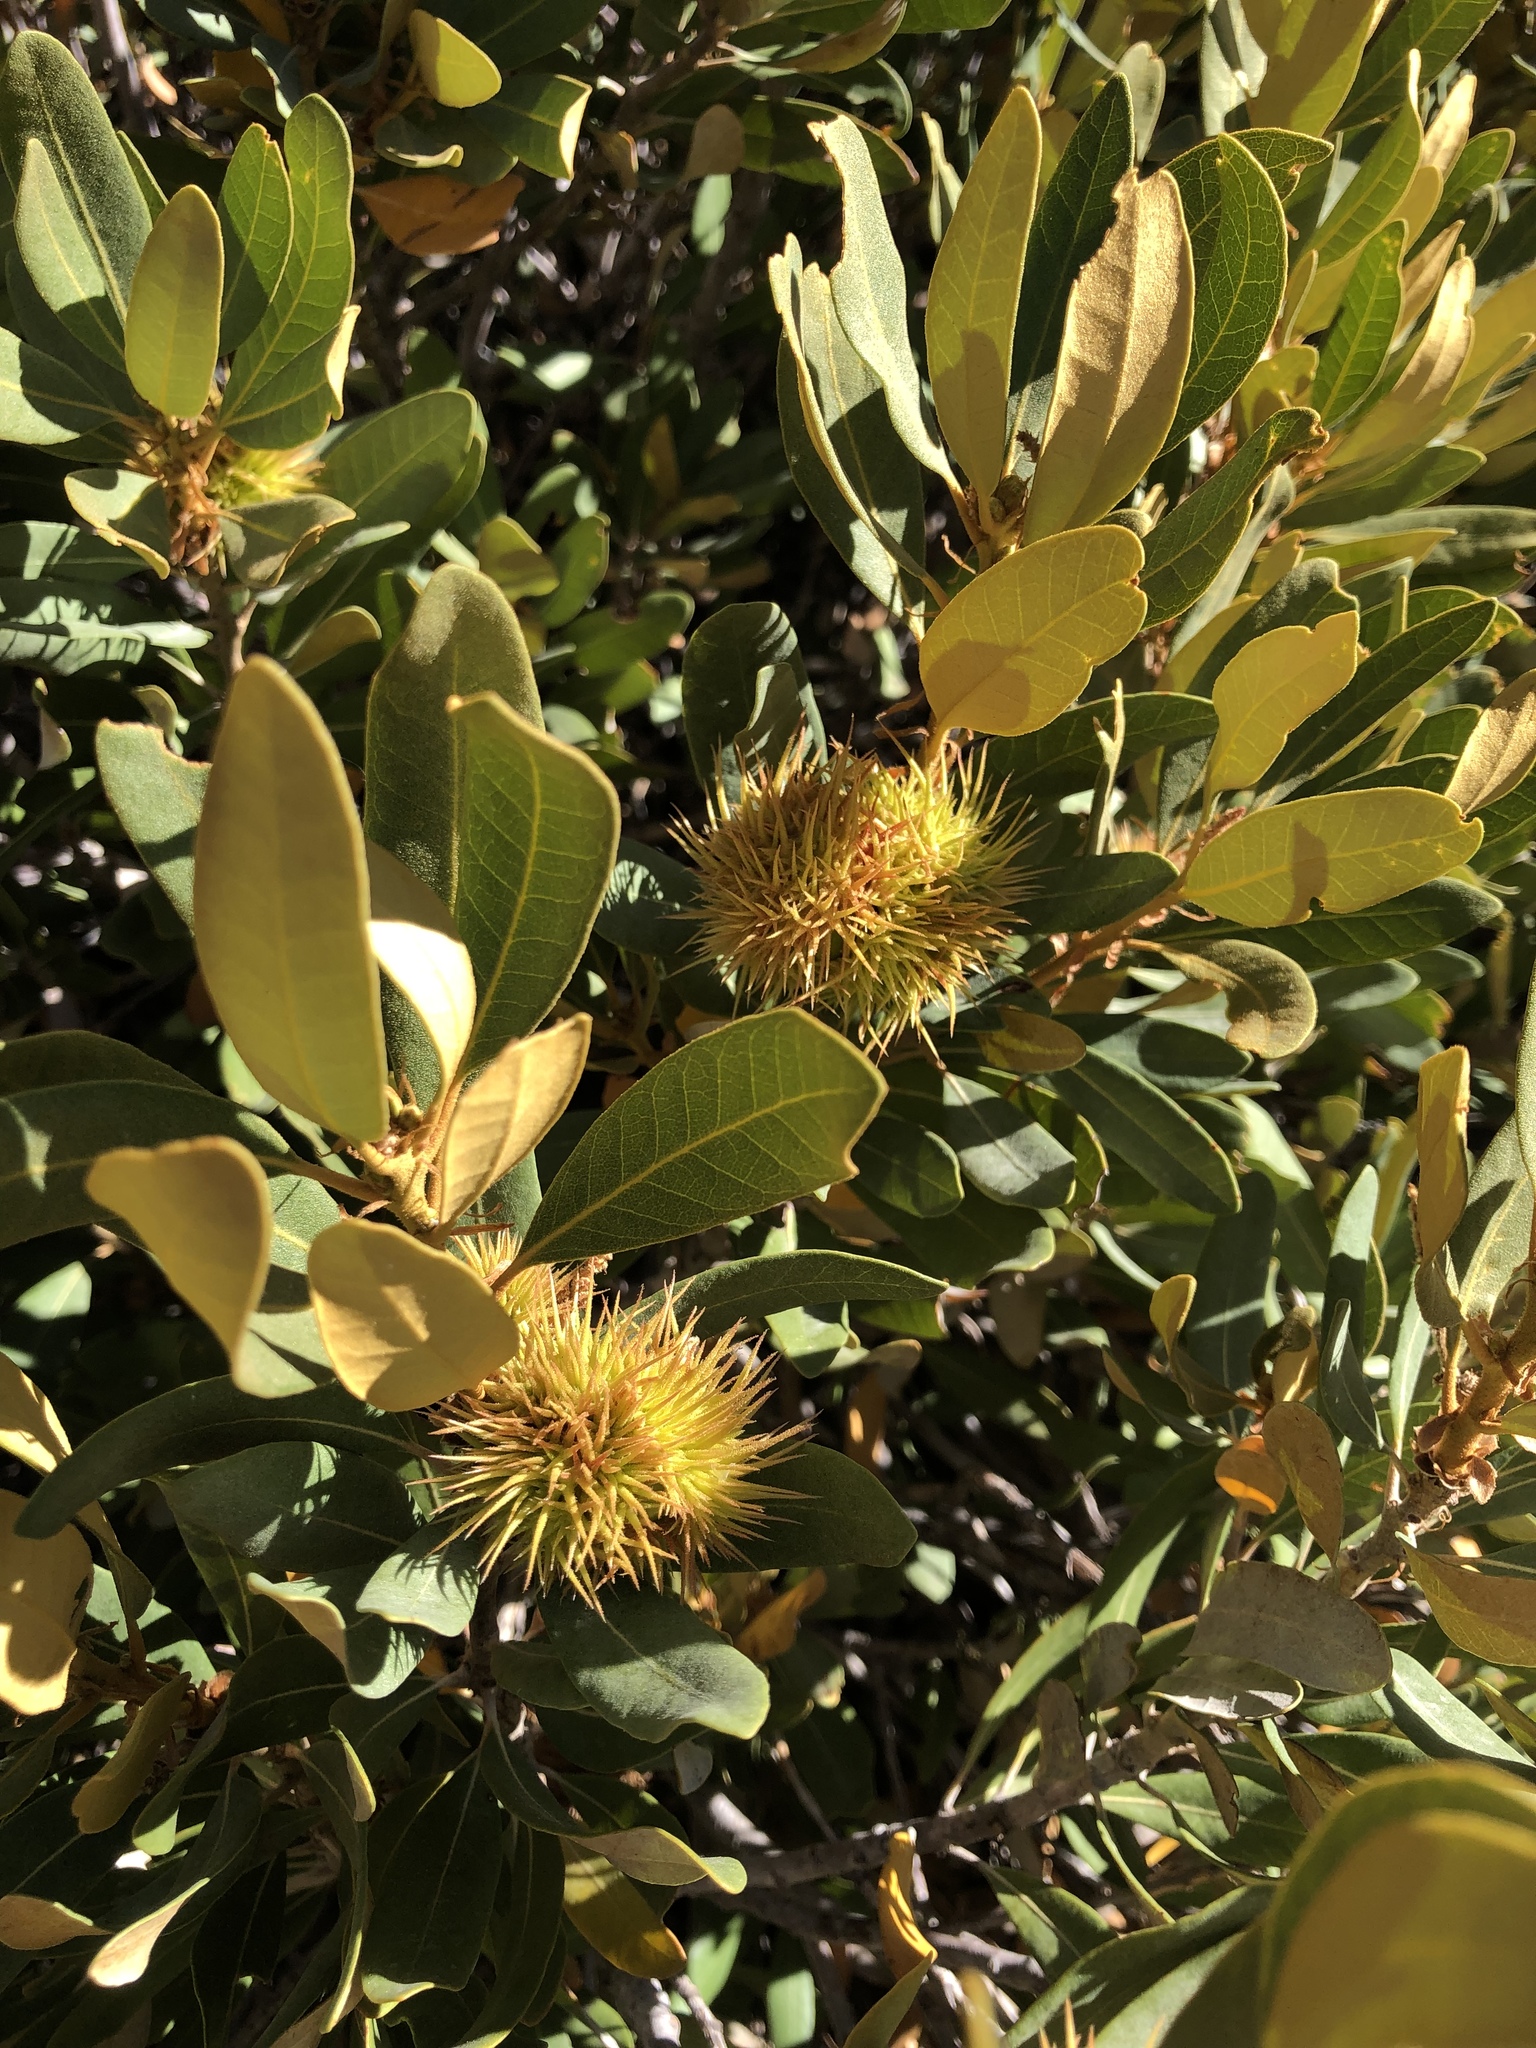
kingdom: Plantae
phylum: Tracheophyta
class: Magnoliopsida
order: Fagales
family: Fagaceae
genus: Chrysolepis
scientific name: Chrysolepis sempervirens
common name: Bush chinquapin
